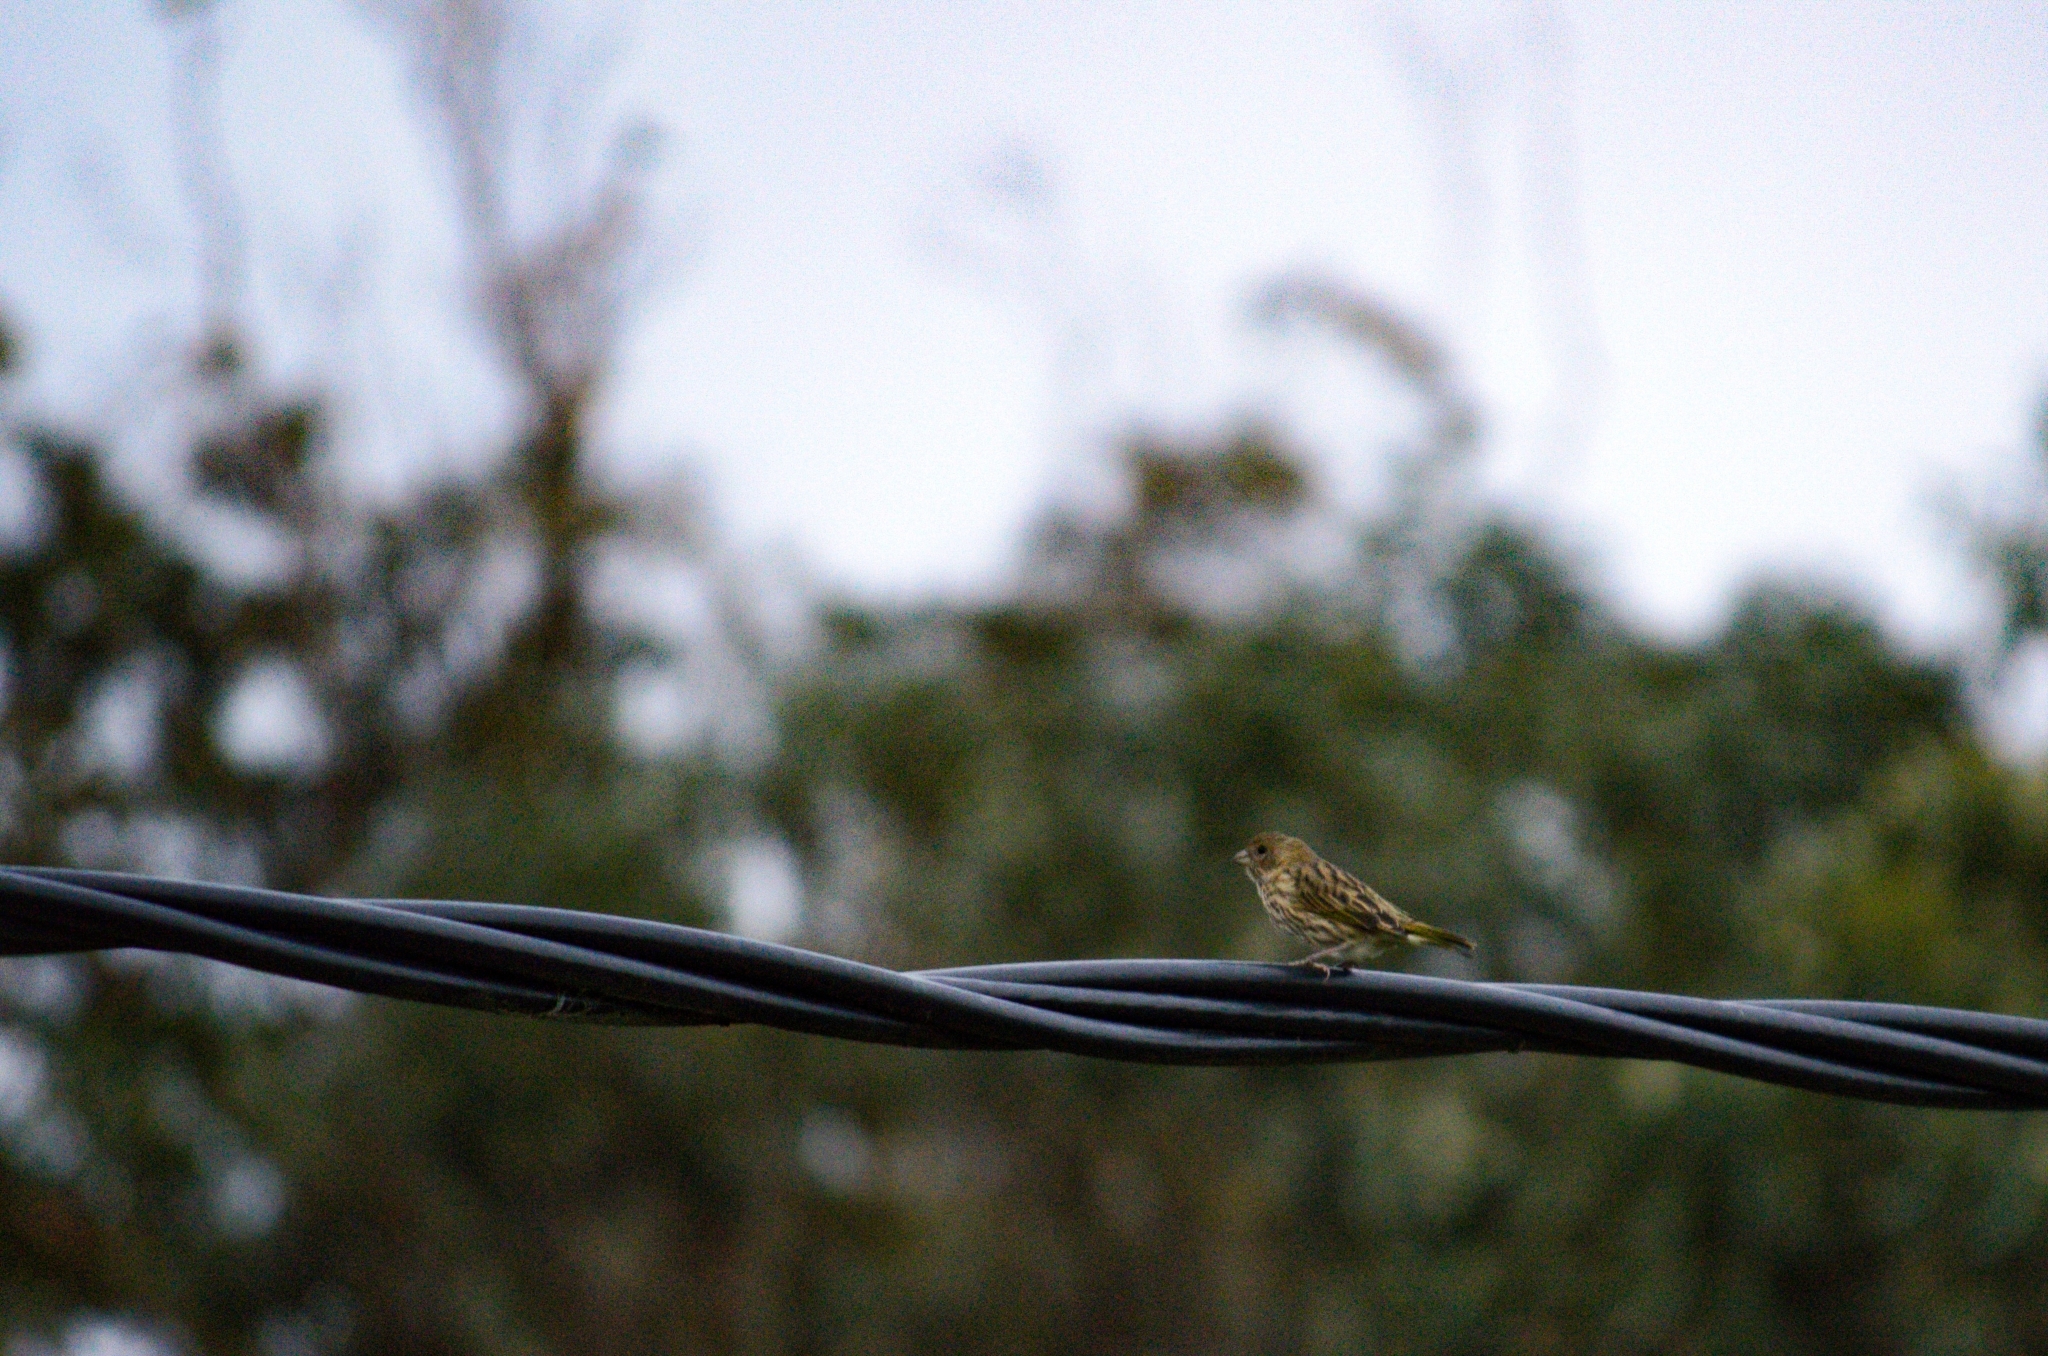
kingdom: Animalia
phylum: Chordata
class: Aves
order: Passeriformes
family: Thraupidae
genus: Sicalis
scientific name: Sicalis flaveola
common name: Saffron finch
